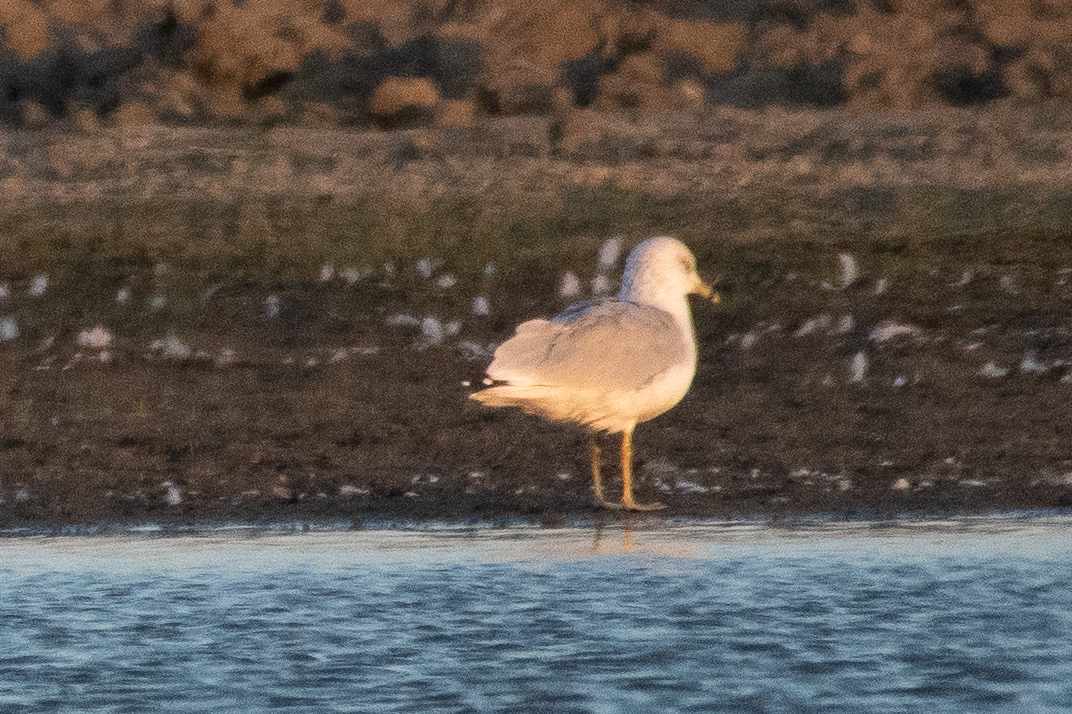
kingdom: Animalia
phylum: Chordata
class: Aves
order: Charadriiformes
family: Laridae
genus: Larus
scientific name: Larus delawarensis
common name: Ring-billed gull
